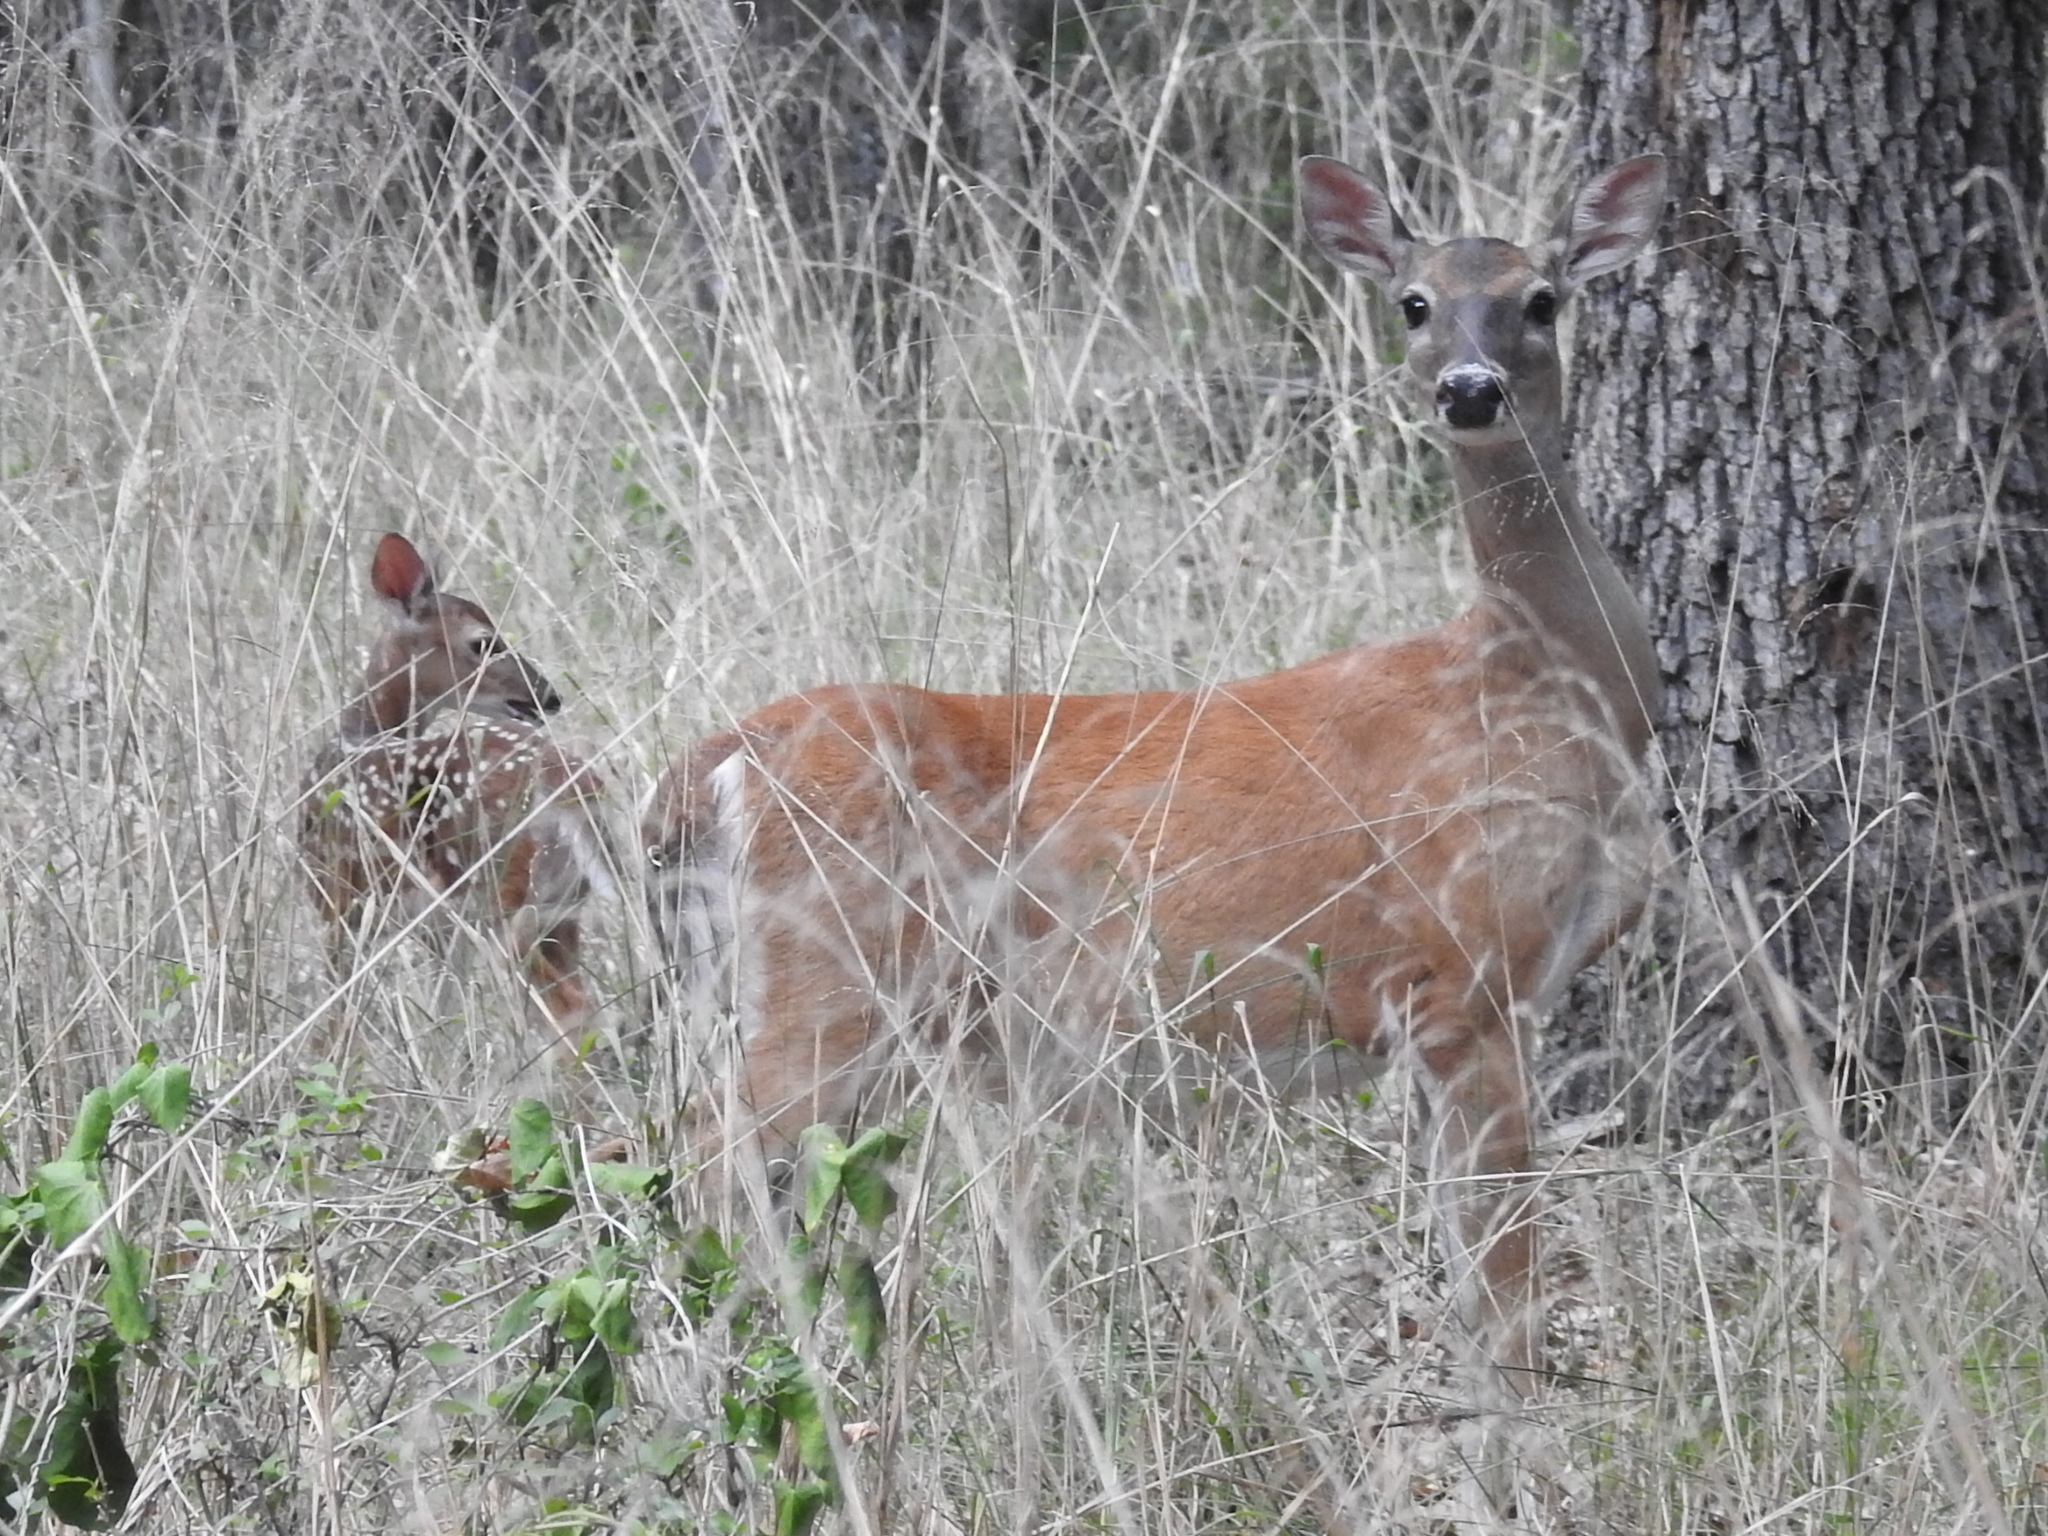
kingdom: Animalia
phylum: Chordata
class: Mammalia
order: Artiodactyla
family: Cervidae
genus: Odocoileus
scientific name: Odocoileus virginianus
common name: White-tailed deer
